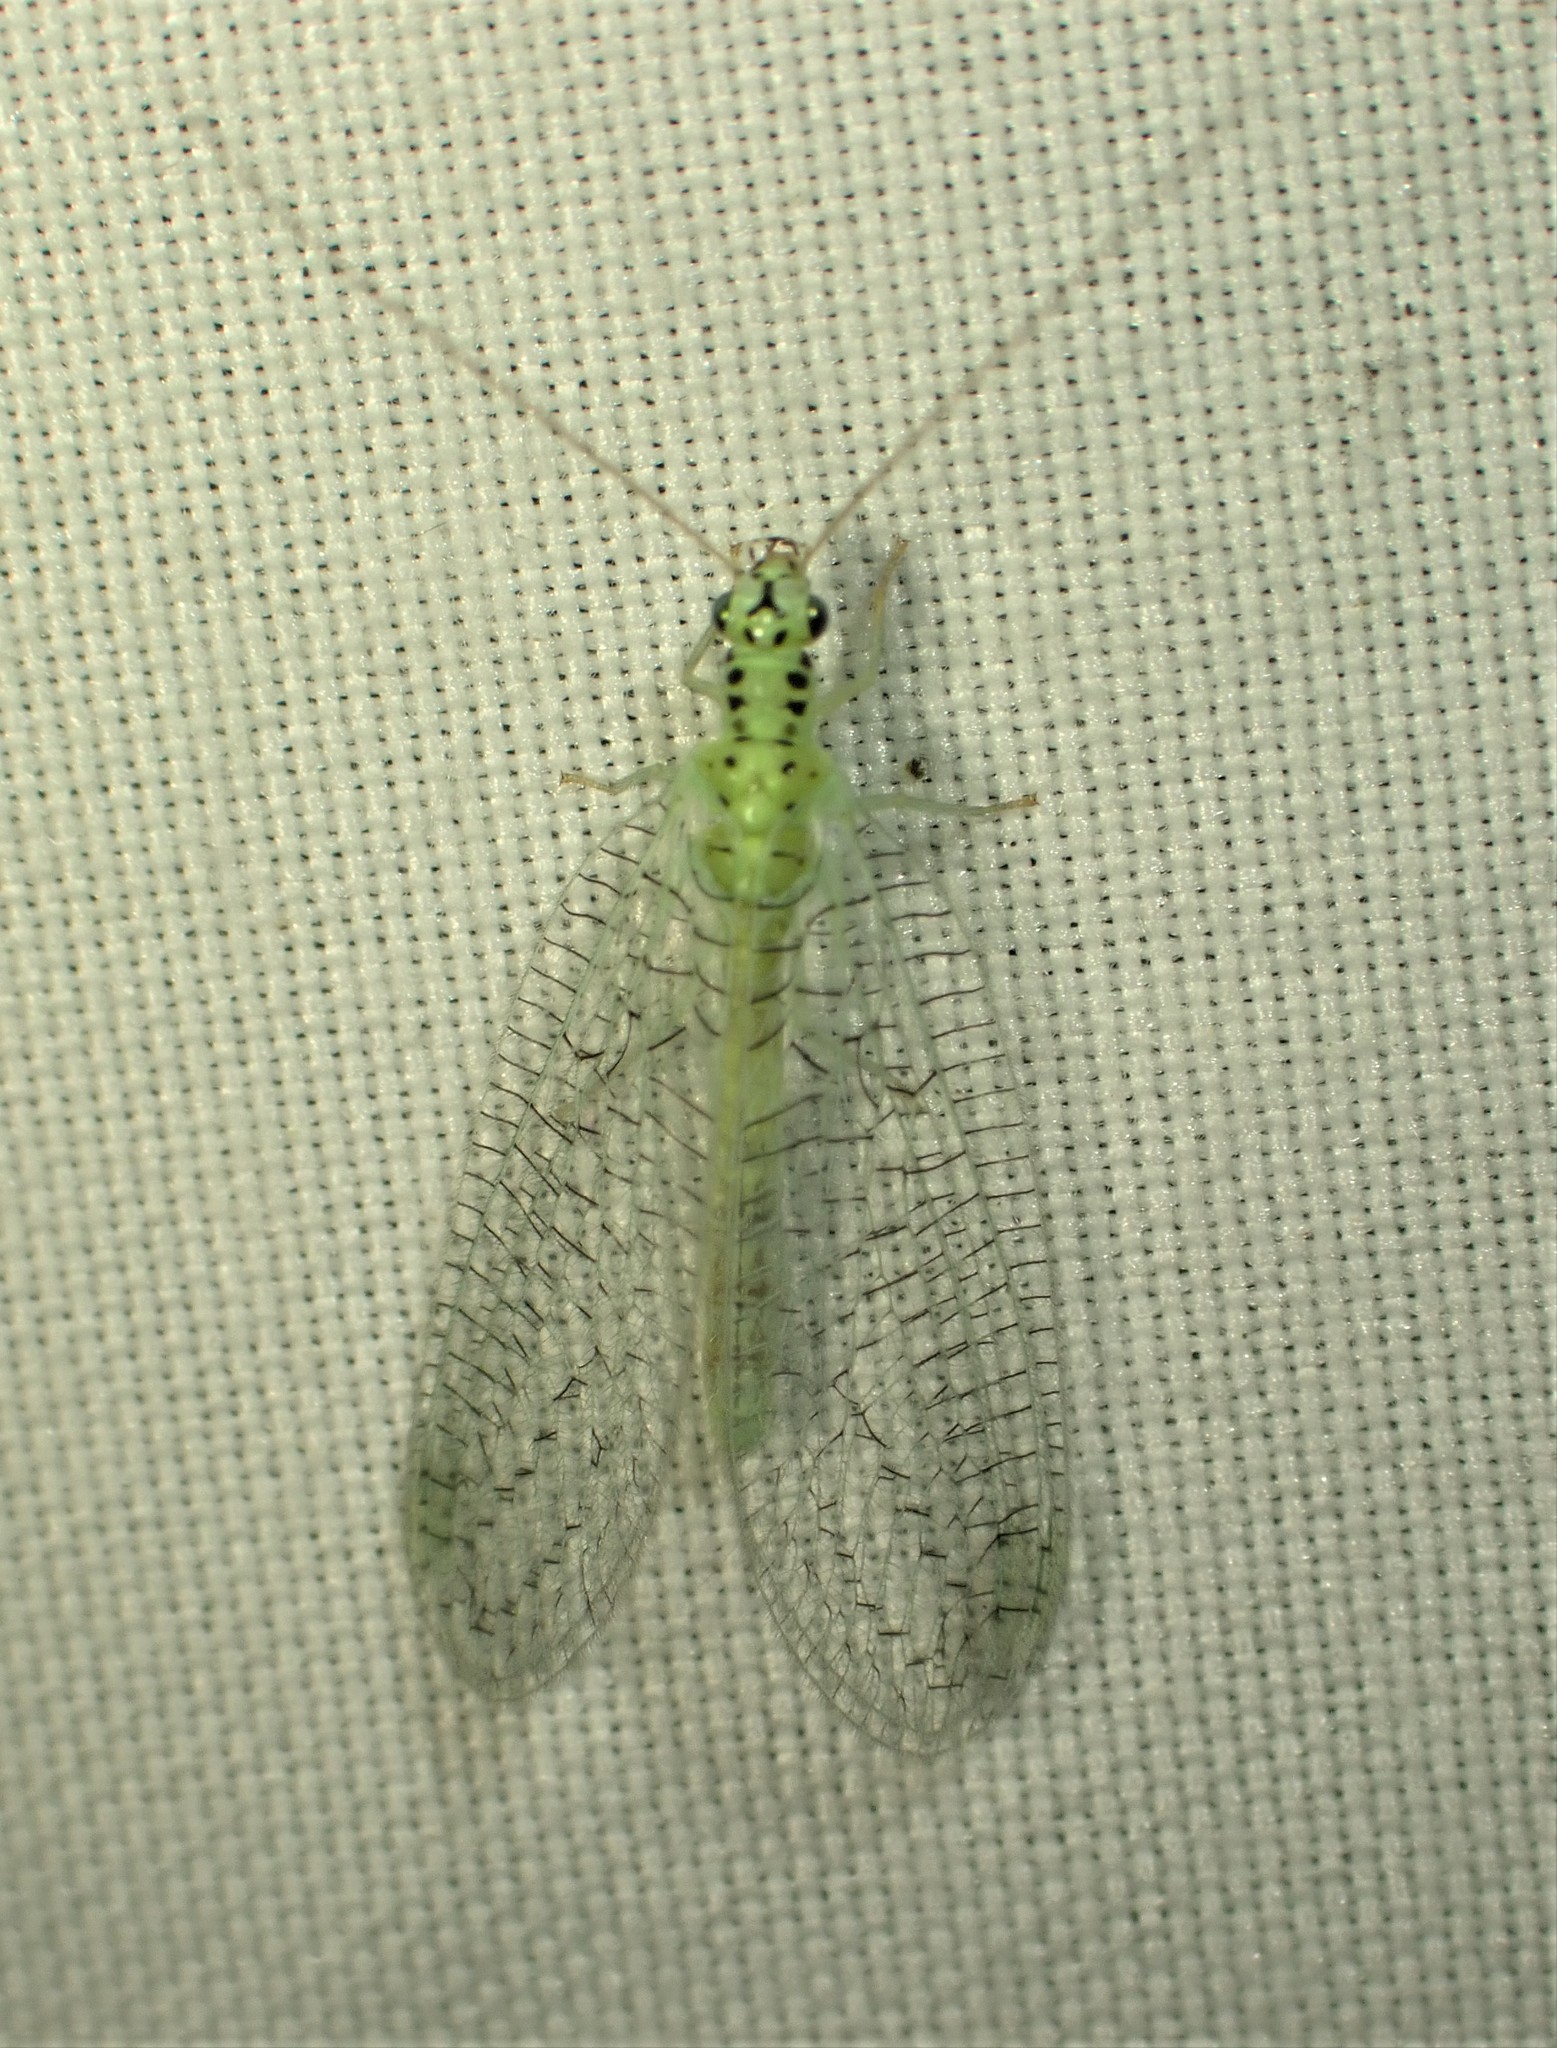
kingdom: Animalia
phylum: Arthropoda
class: Insecta
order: Neuroptera
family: Chrysopidae
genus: Chrysopa
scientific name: Chrysopa chi
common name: X-marked green lacewing
